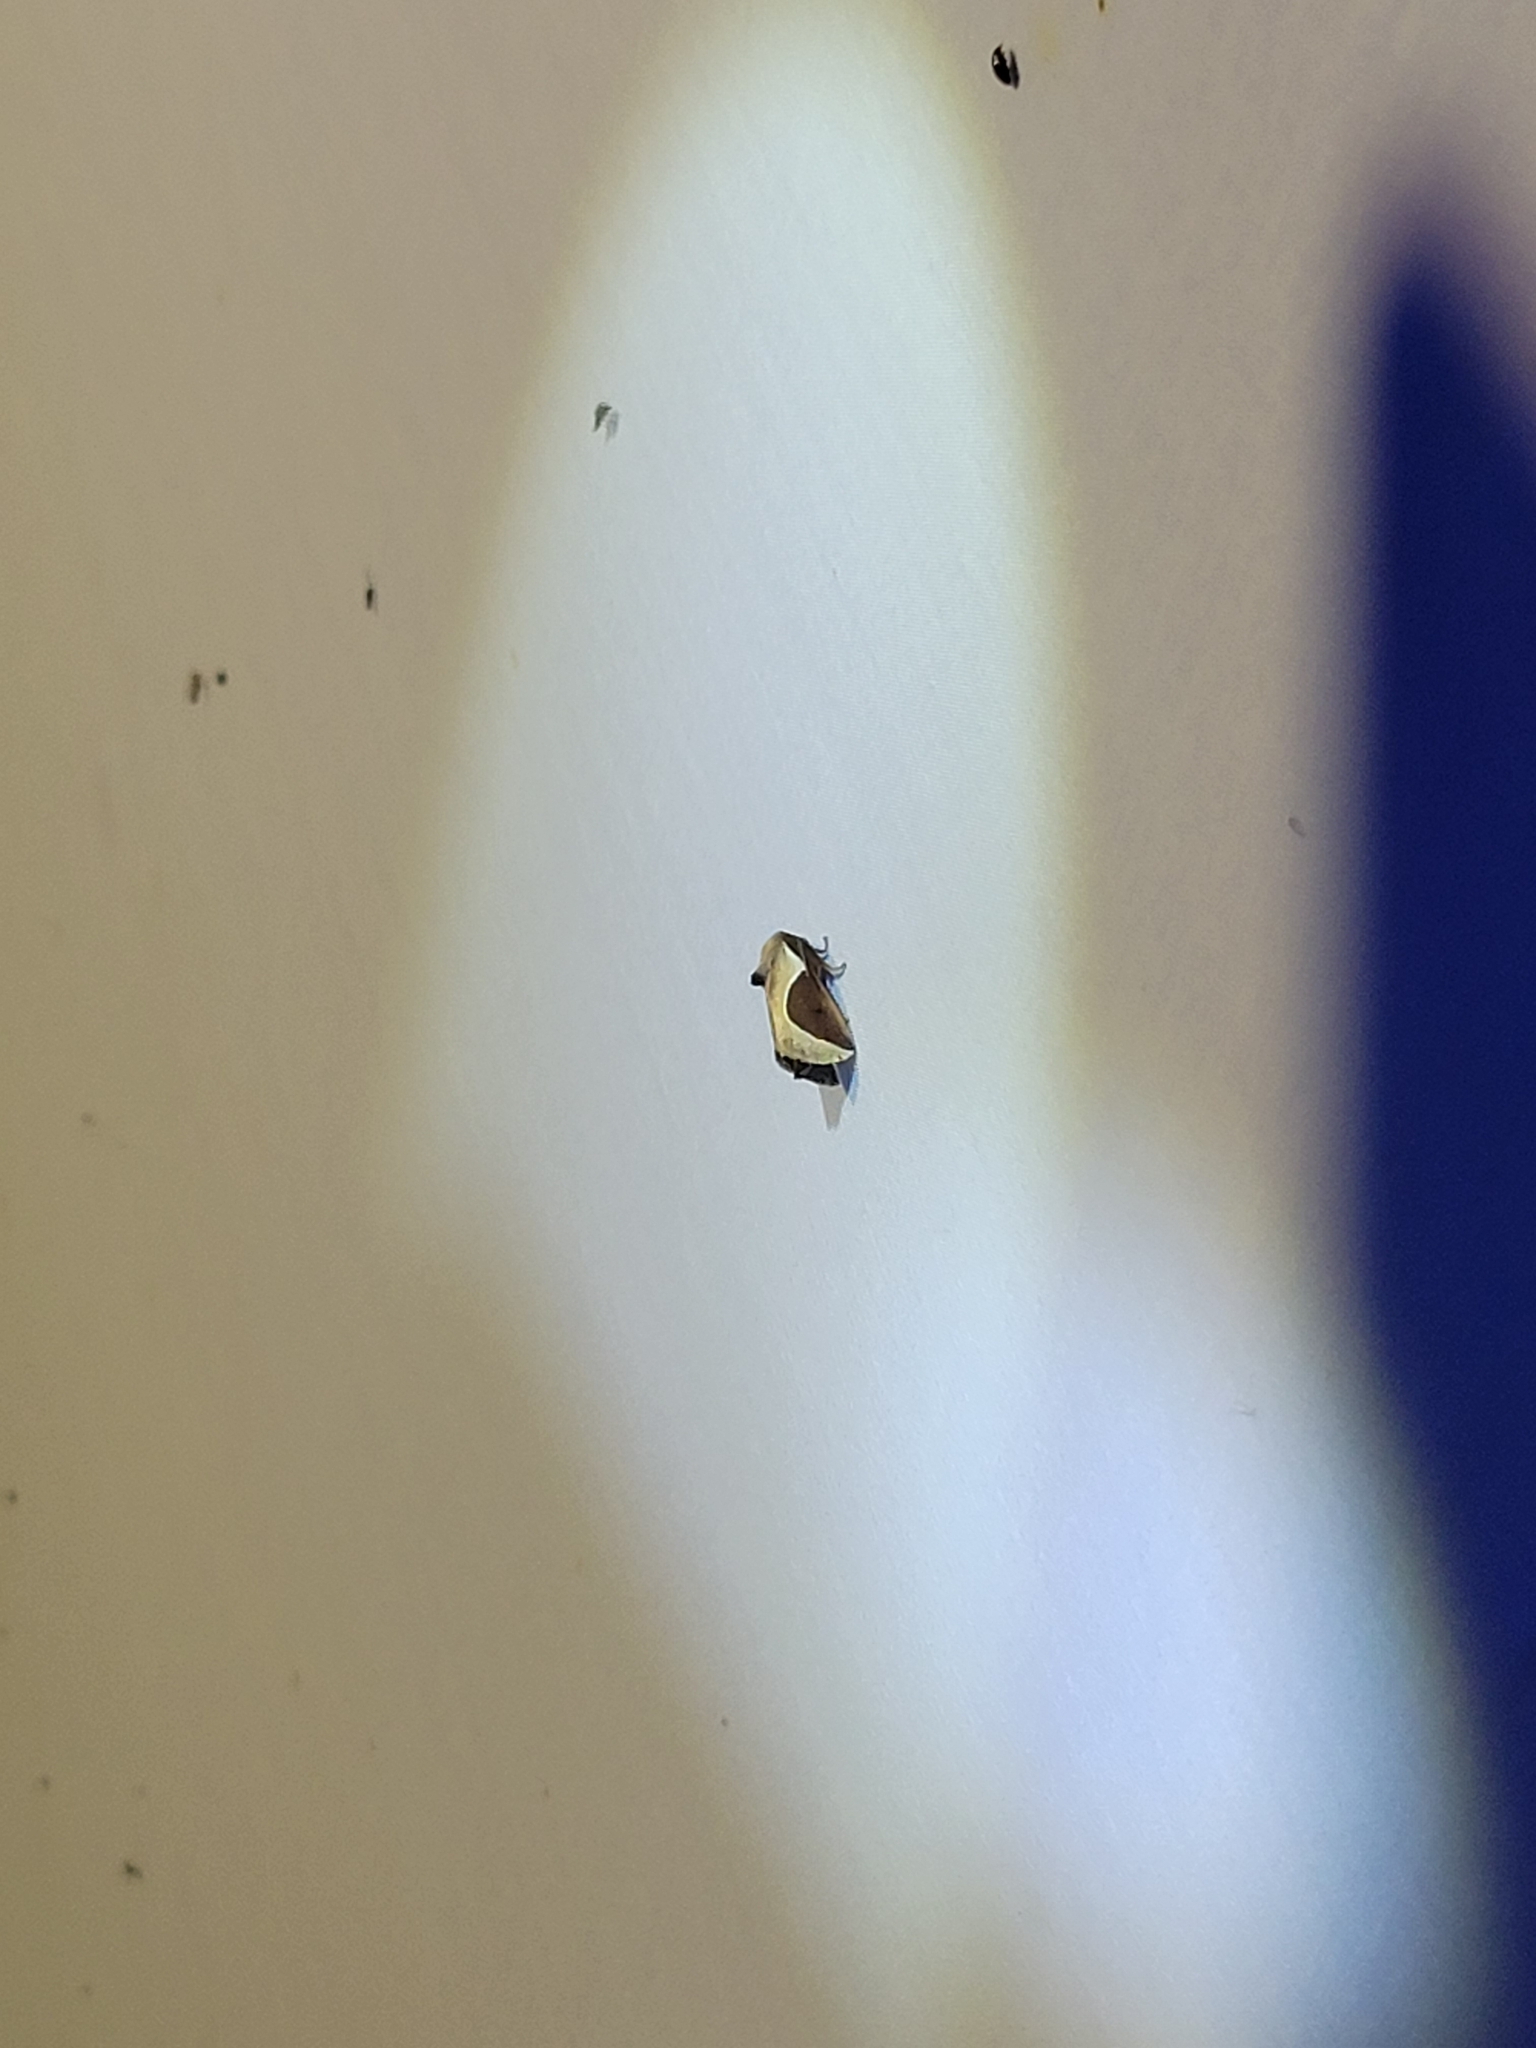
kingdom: Animalia
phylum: Arthropoda
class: Insecta
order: Lepidoptera
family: Limacodidae
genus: Prolimacodes
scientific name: Prolimacodes badia
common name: Skiff moth
